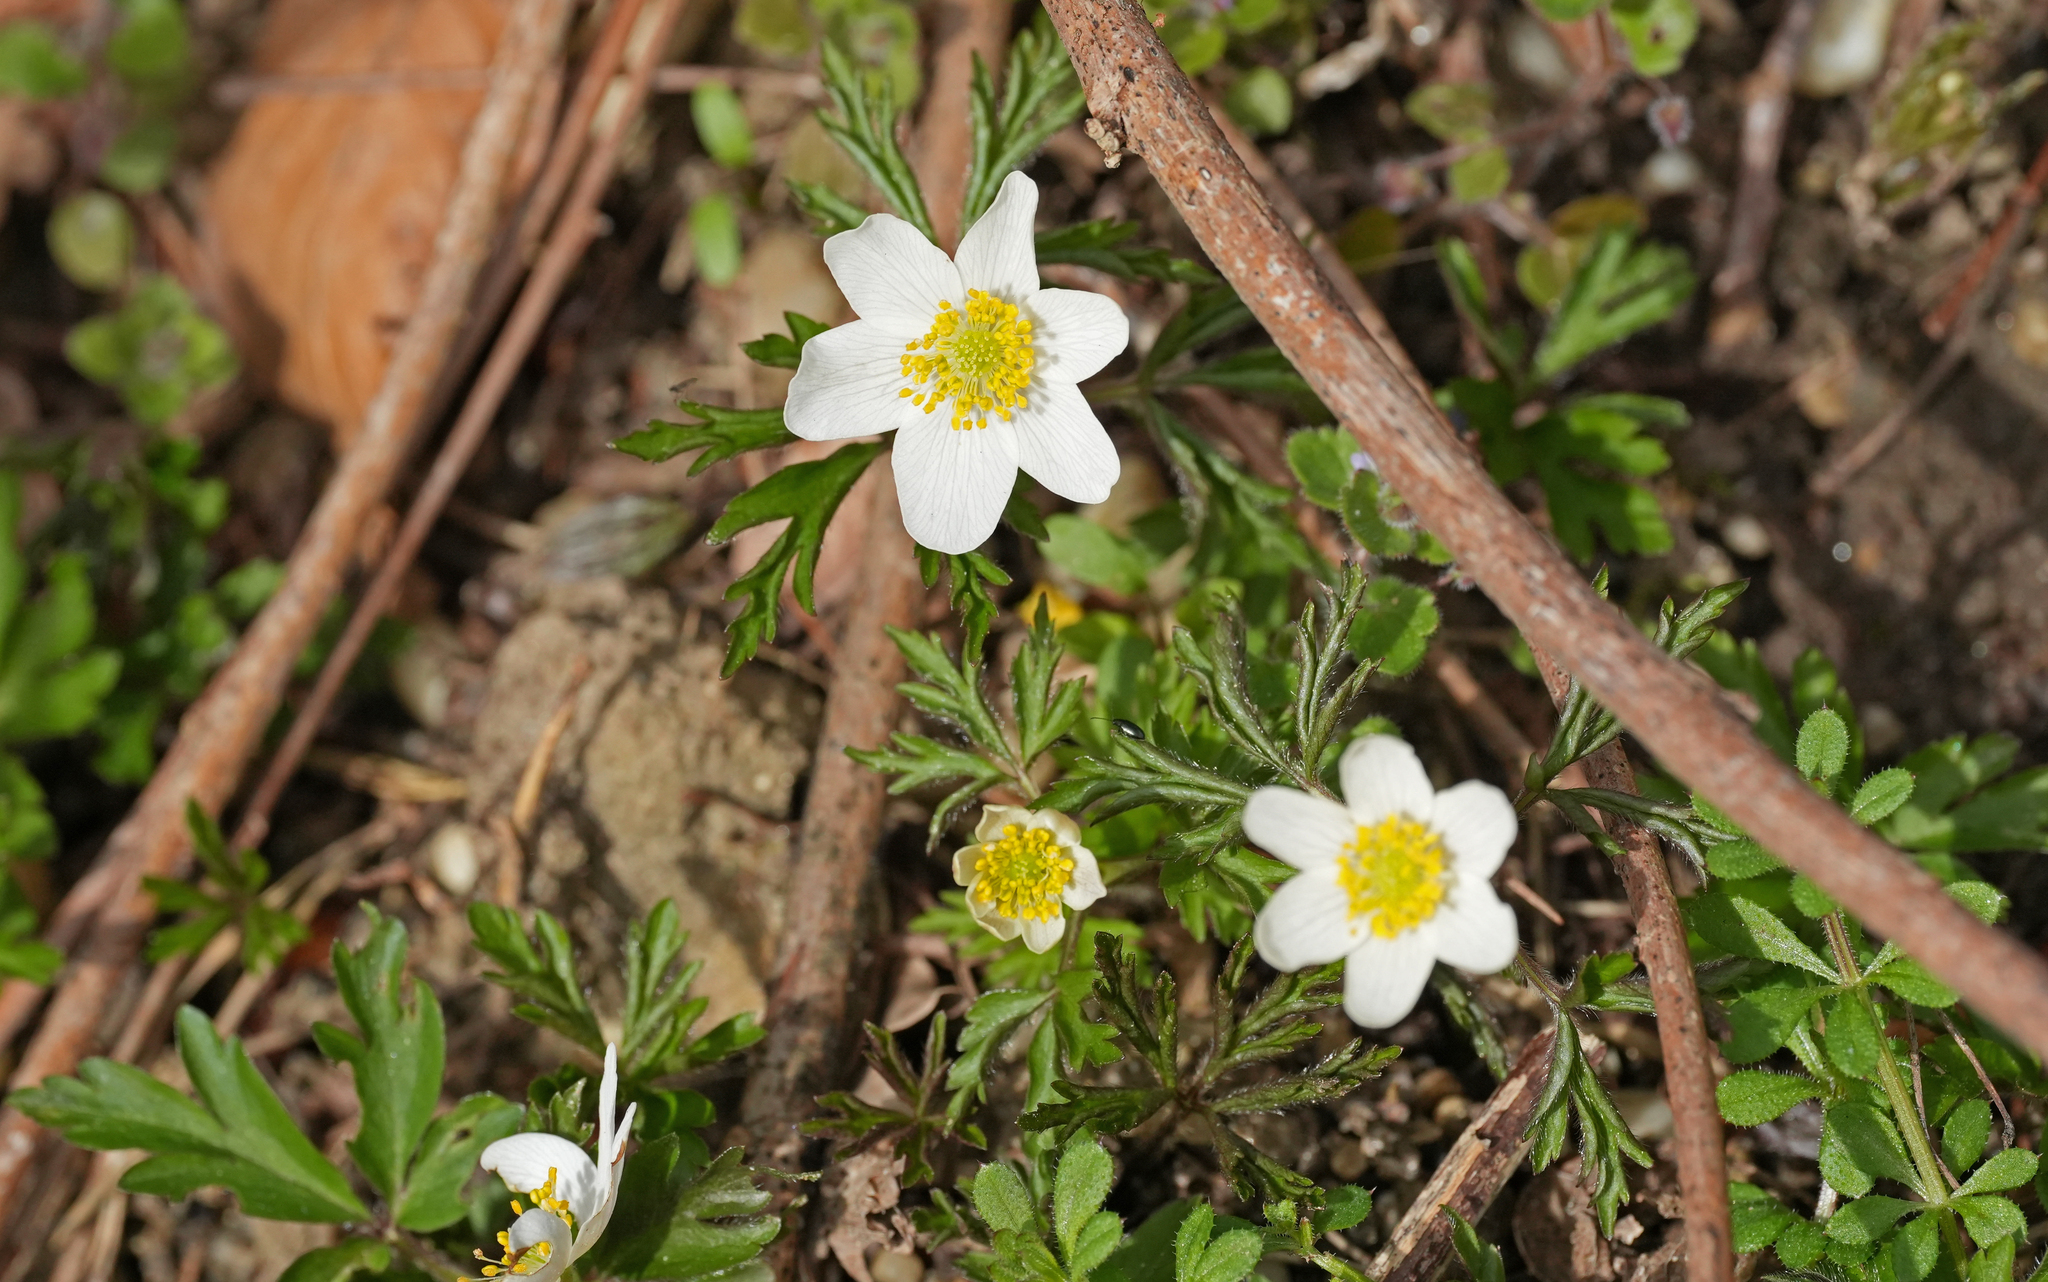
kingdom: Plantae
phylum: Tracheophyta
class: Magnoliopsida
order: Ranunculales
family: Ranunculaceae
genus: Anemone
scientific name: Anemone nemorosa
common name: Wood anemone
